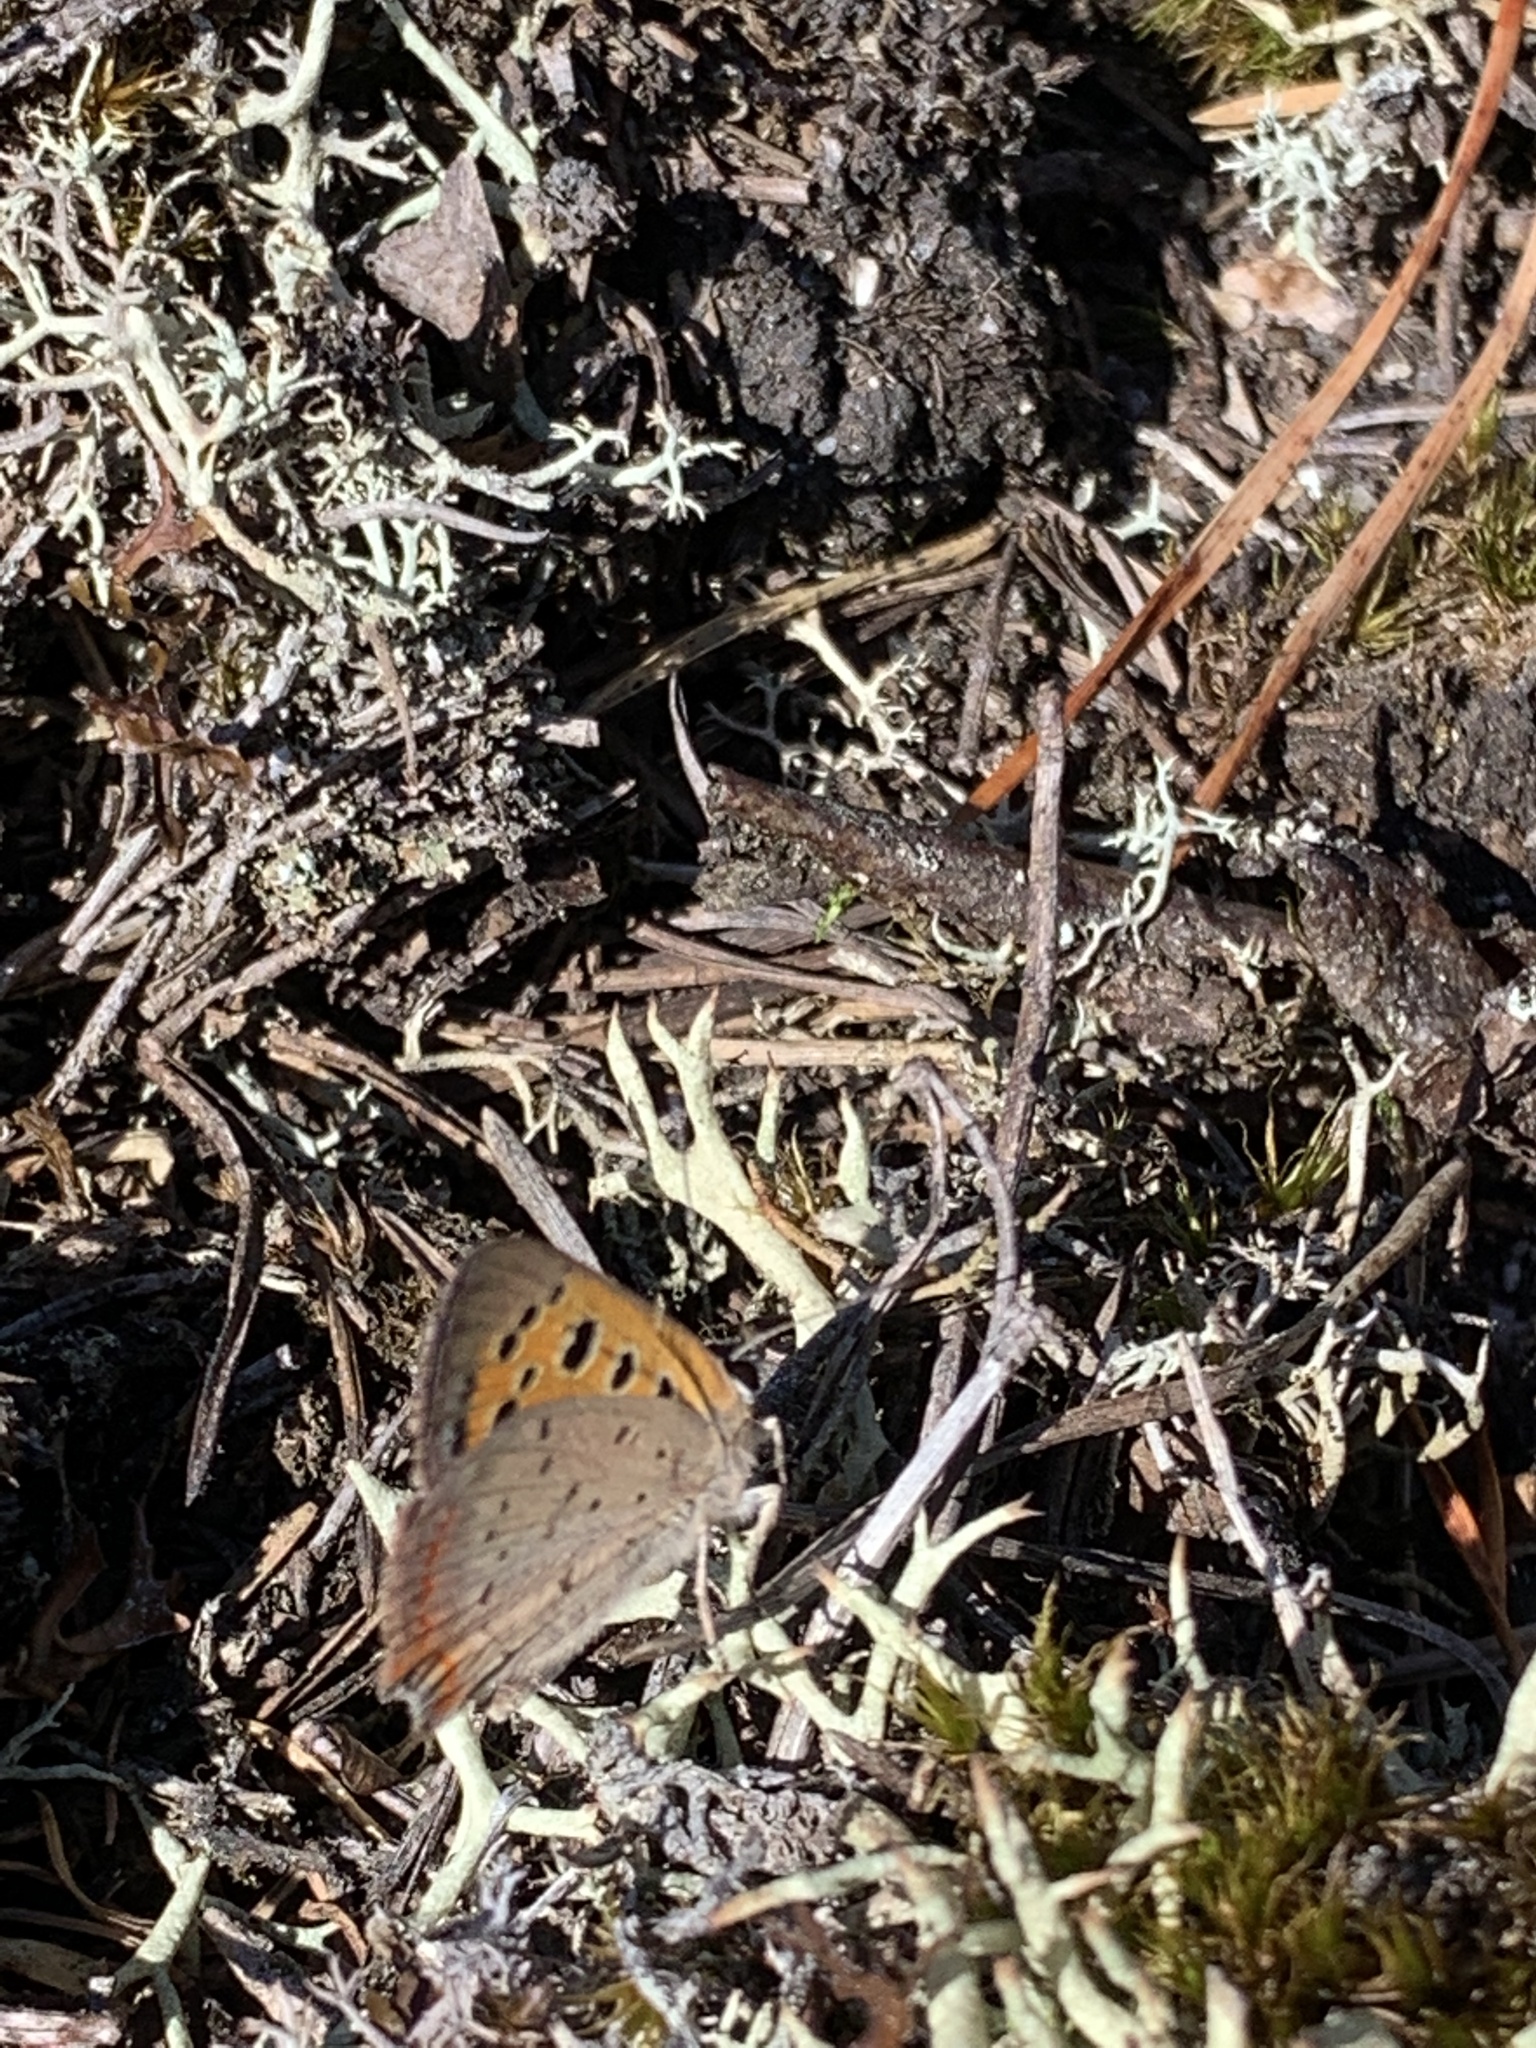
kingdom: Animalia
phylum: Arthropoda
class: Insecta
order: Lepidoptera
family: Lycaenidae
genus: Lycaena
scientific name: Lycaena phlaeas
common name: Small copper
